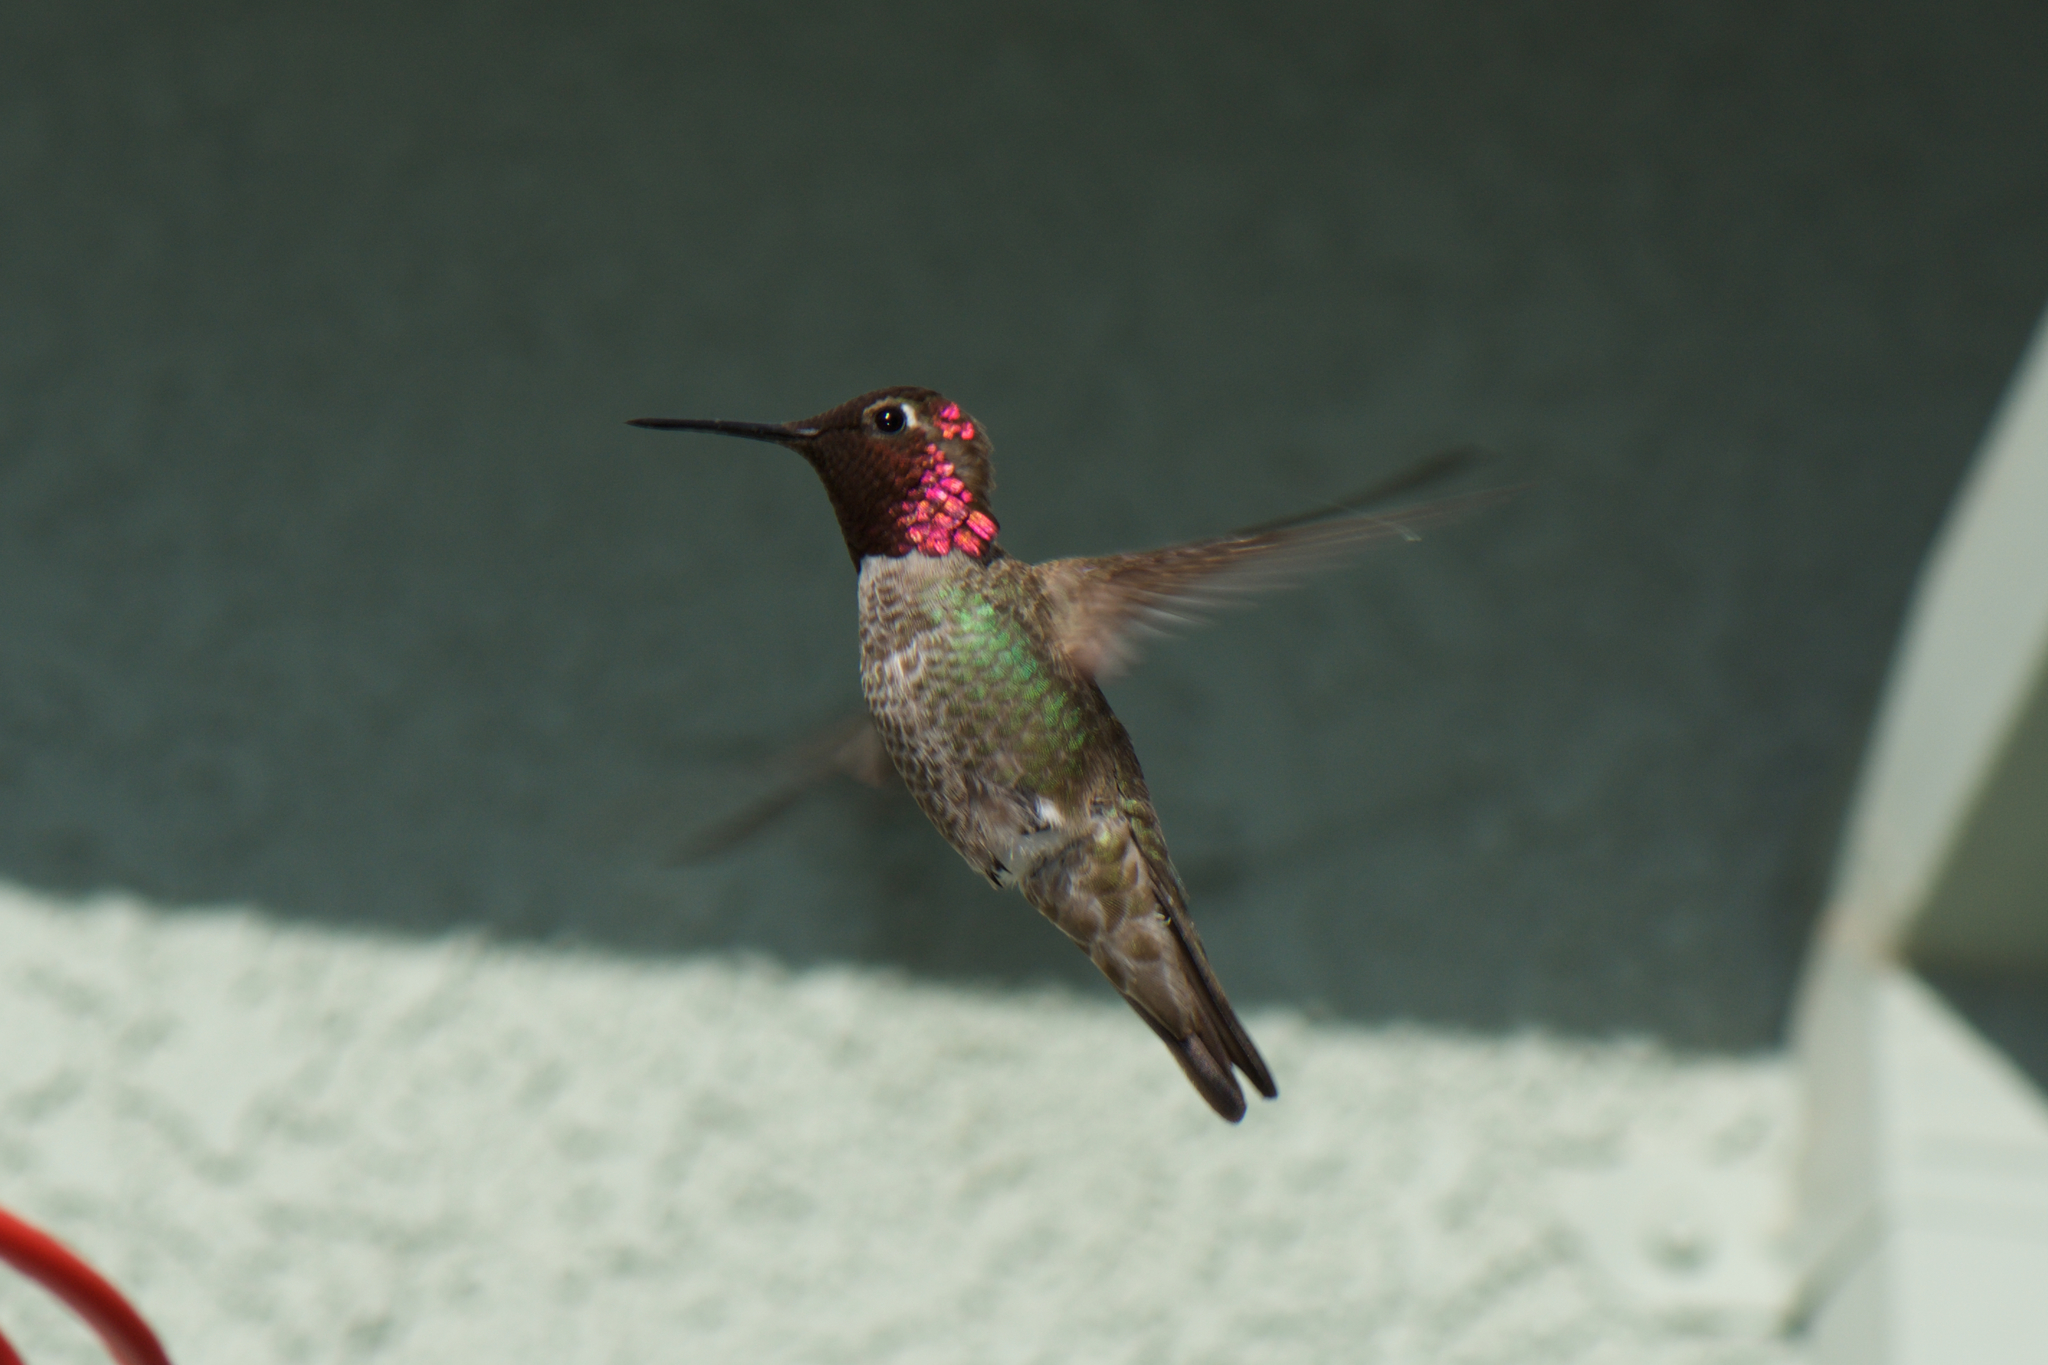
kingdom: Animalia
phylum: Chordata
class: Aves
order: Apodiformes
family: Trochilidae
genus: Calypte
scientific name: Calypte anna
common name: Anna's hummingbird
